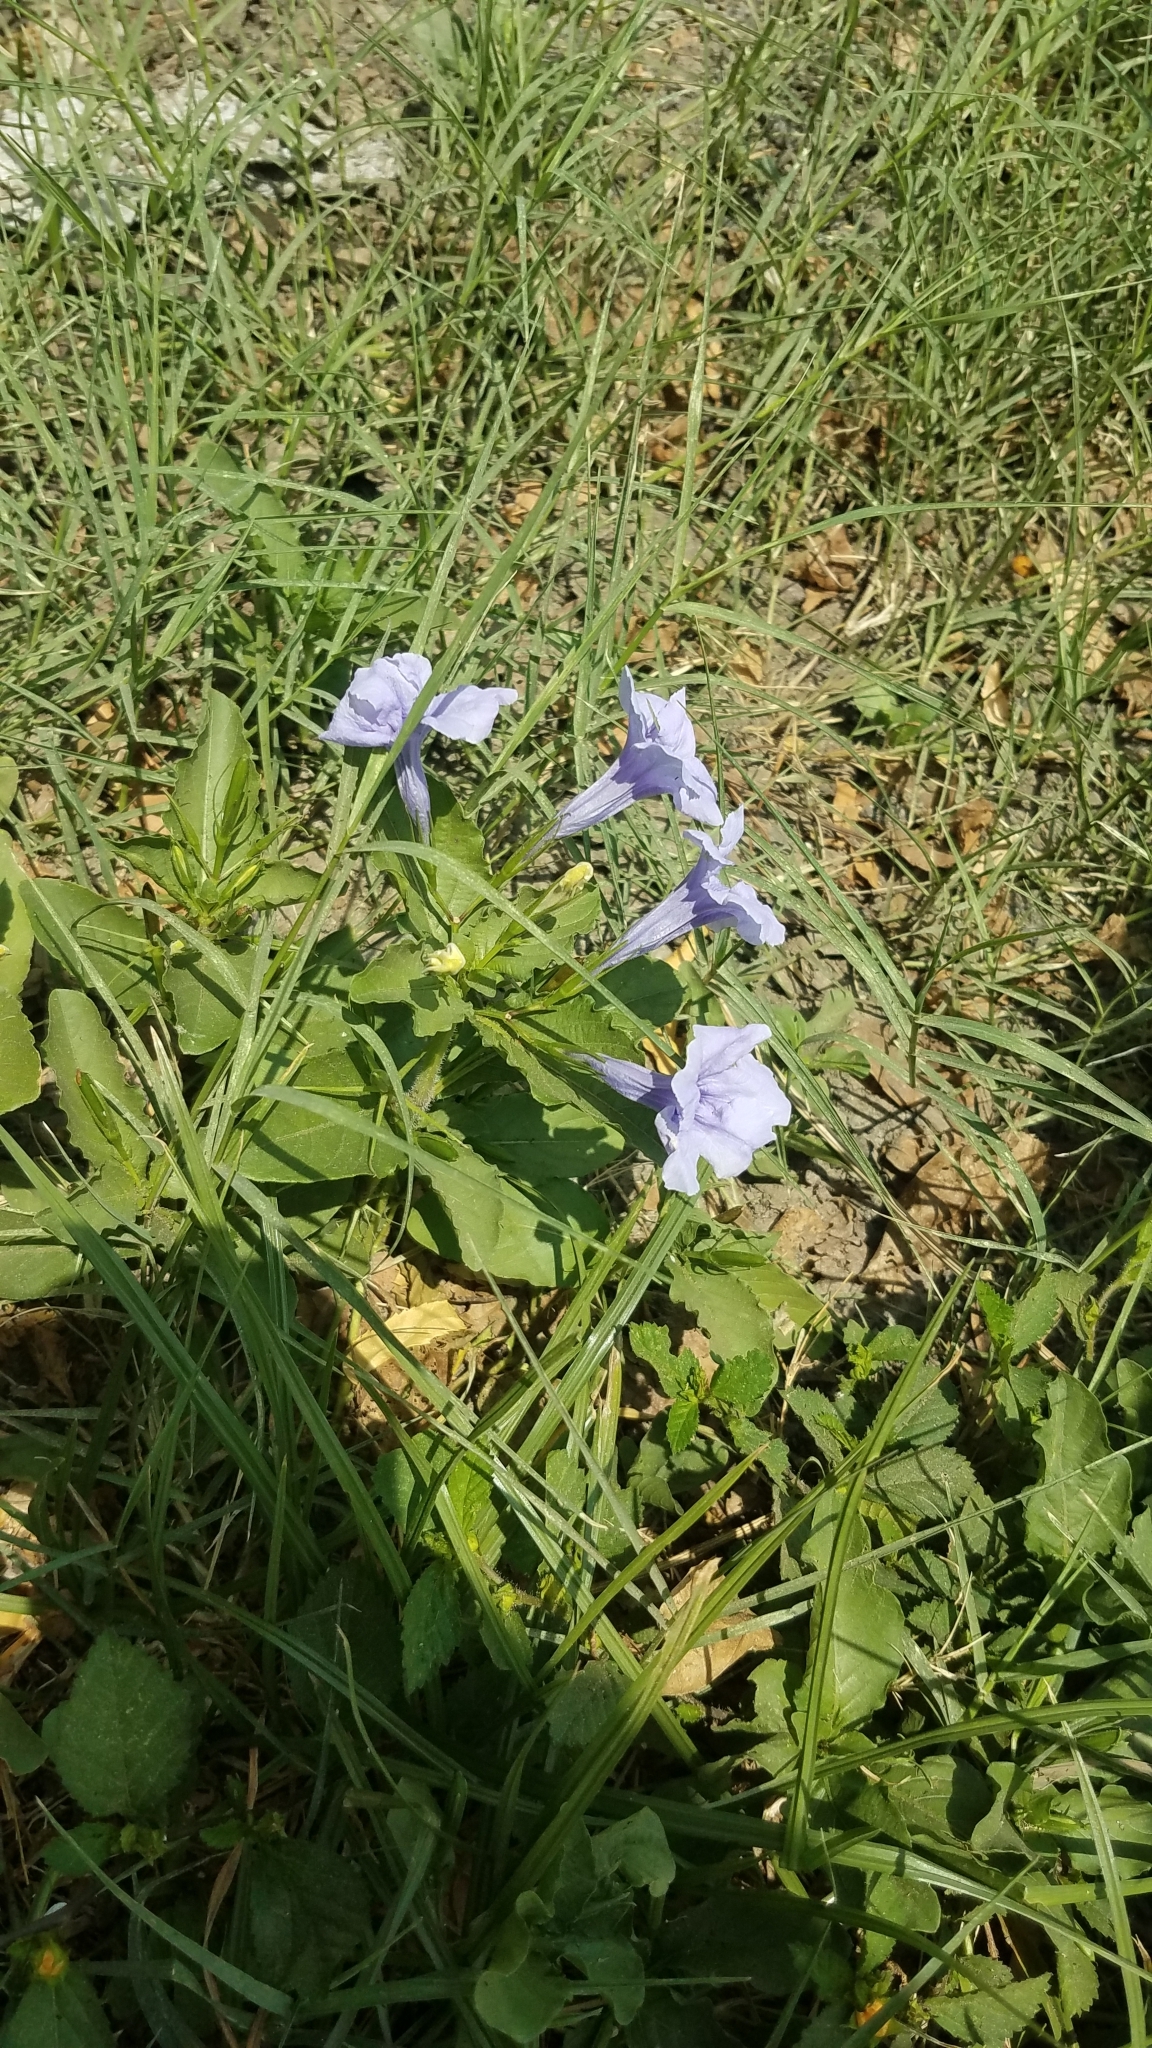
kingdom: Plantae
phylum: Tracheophyta
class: Magnoliopsida
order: Lamiales
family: Acanthaceae
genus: Ruellia
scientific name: Ruellia tuberosa
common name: Devil's bit
